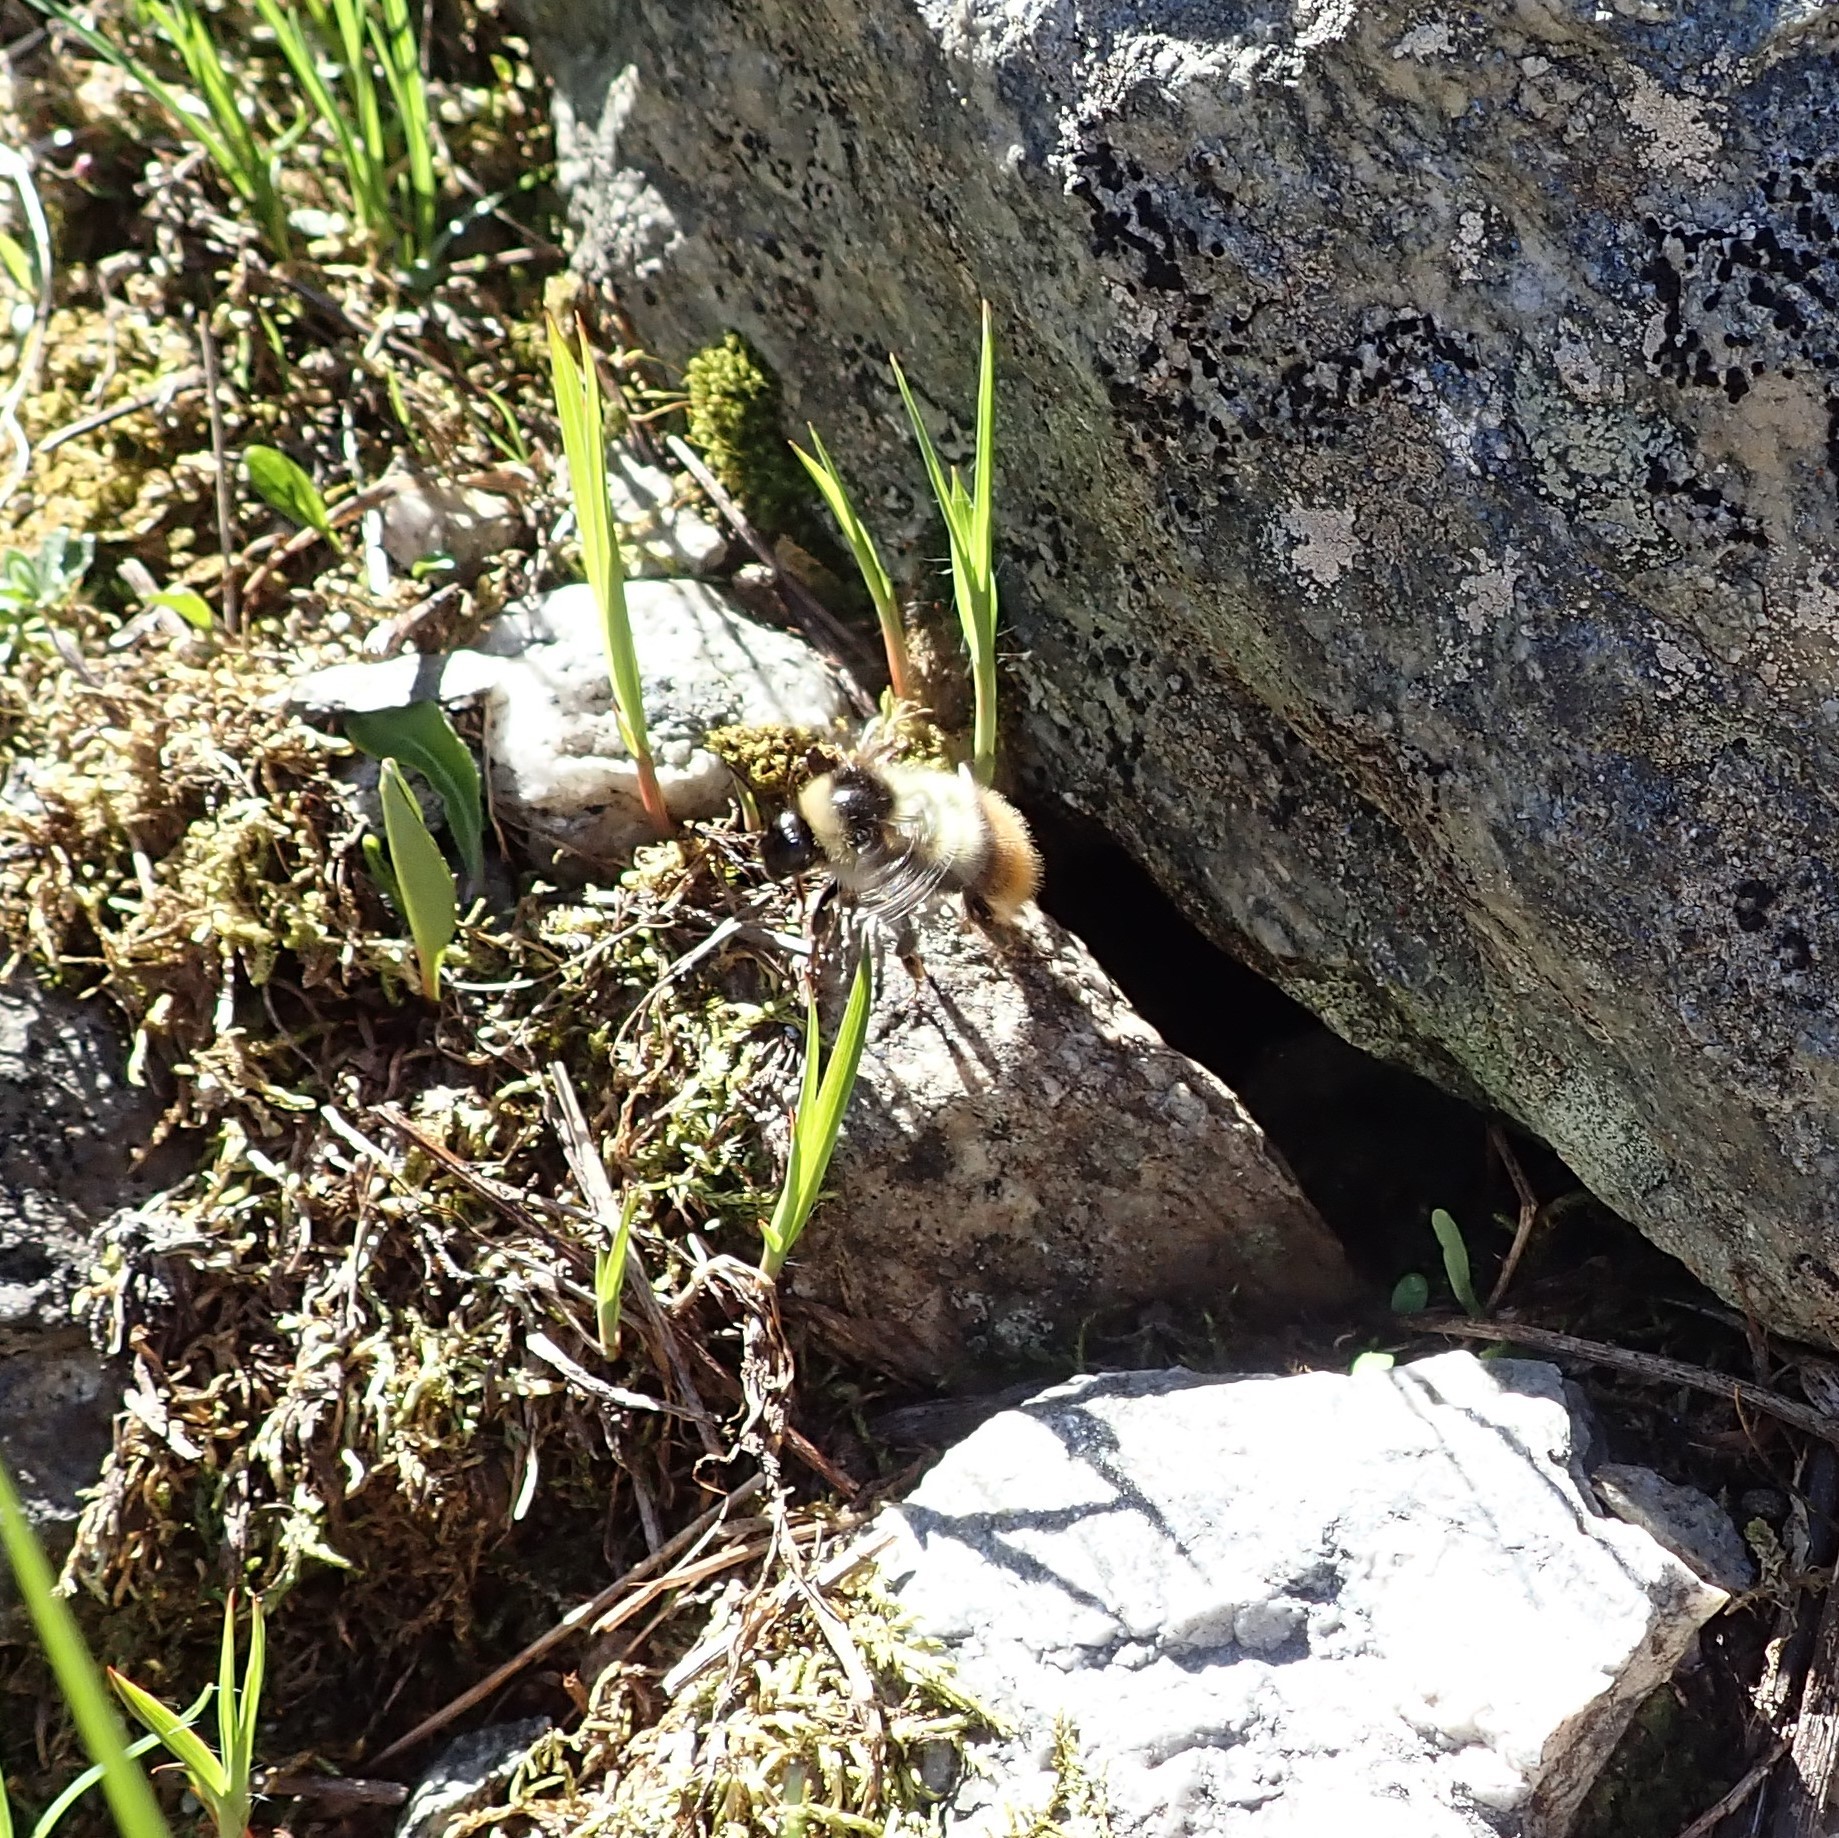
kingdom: Animalia
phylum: Arthropoda
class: Insecta
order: Hymenoptera
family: Apidae
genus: Bombus
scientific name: Bombus sichelii
